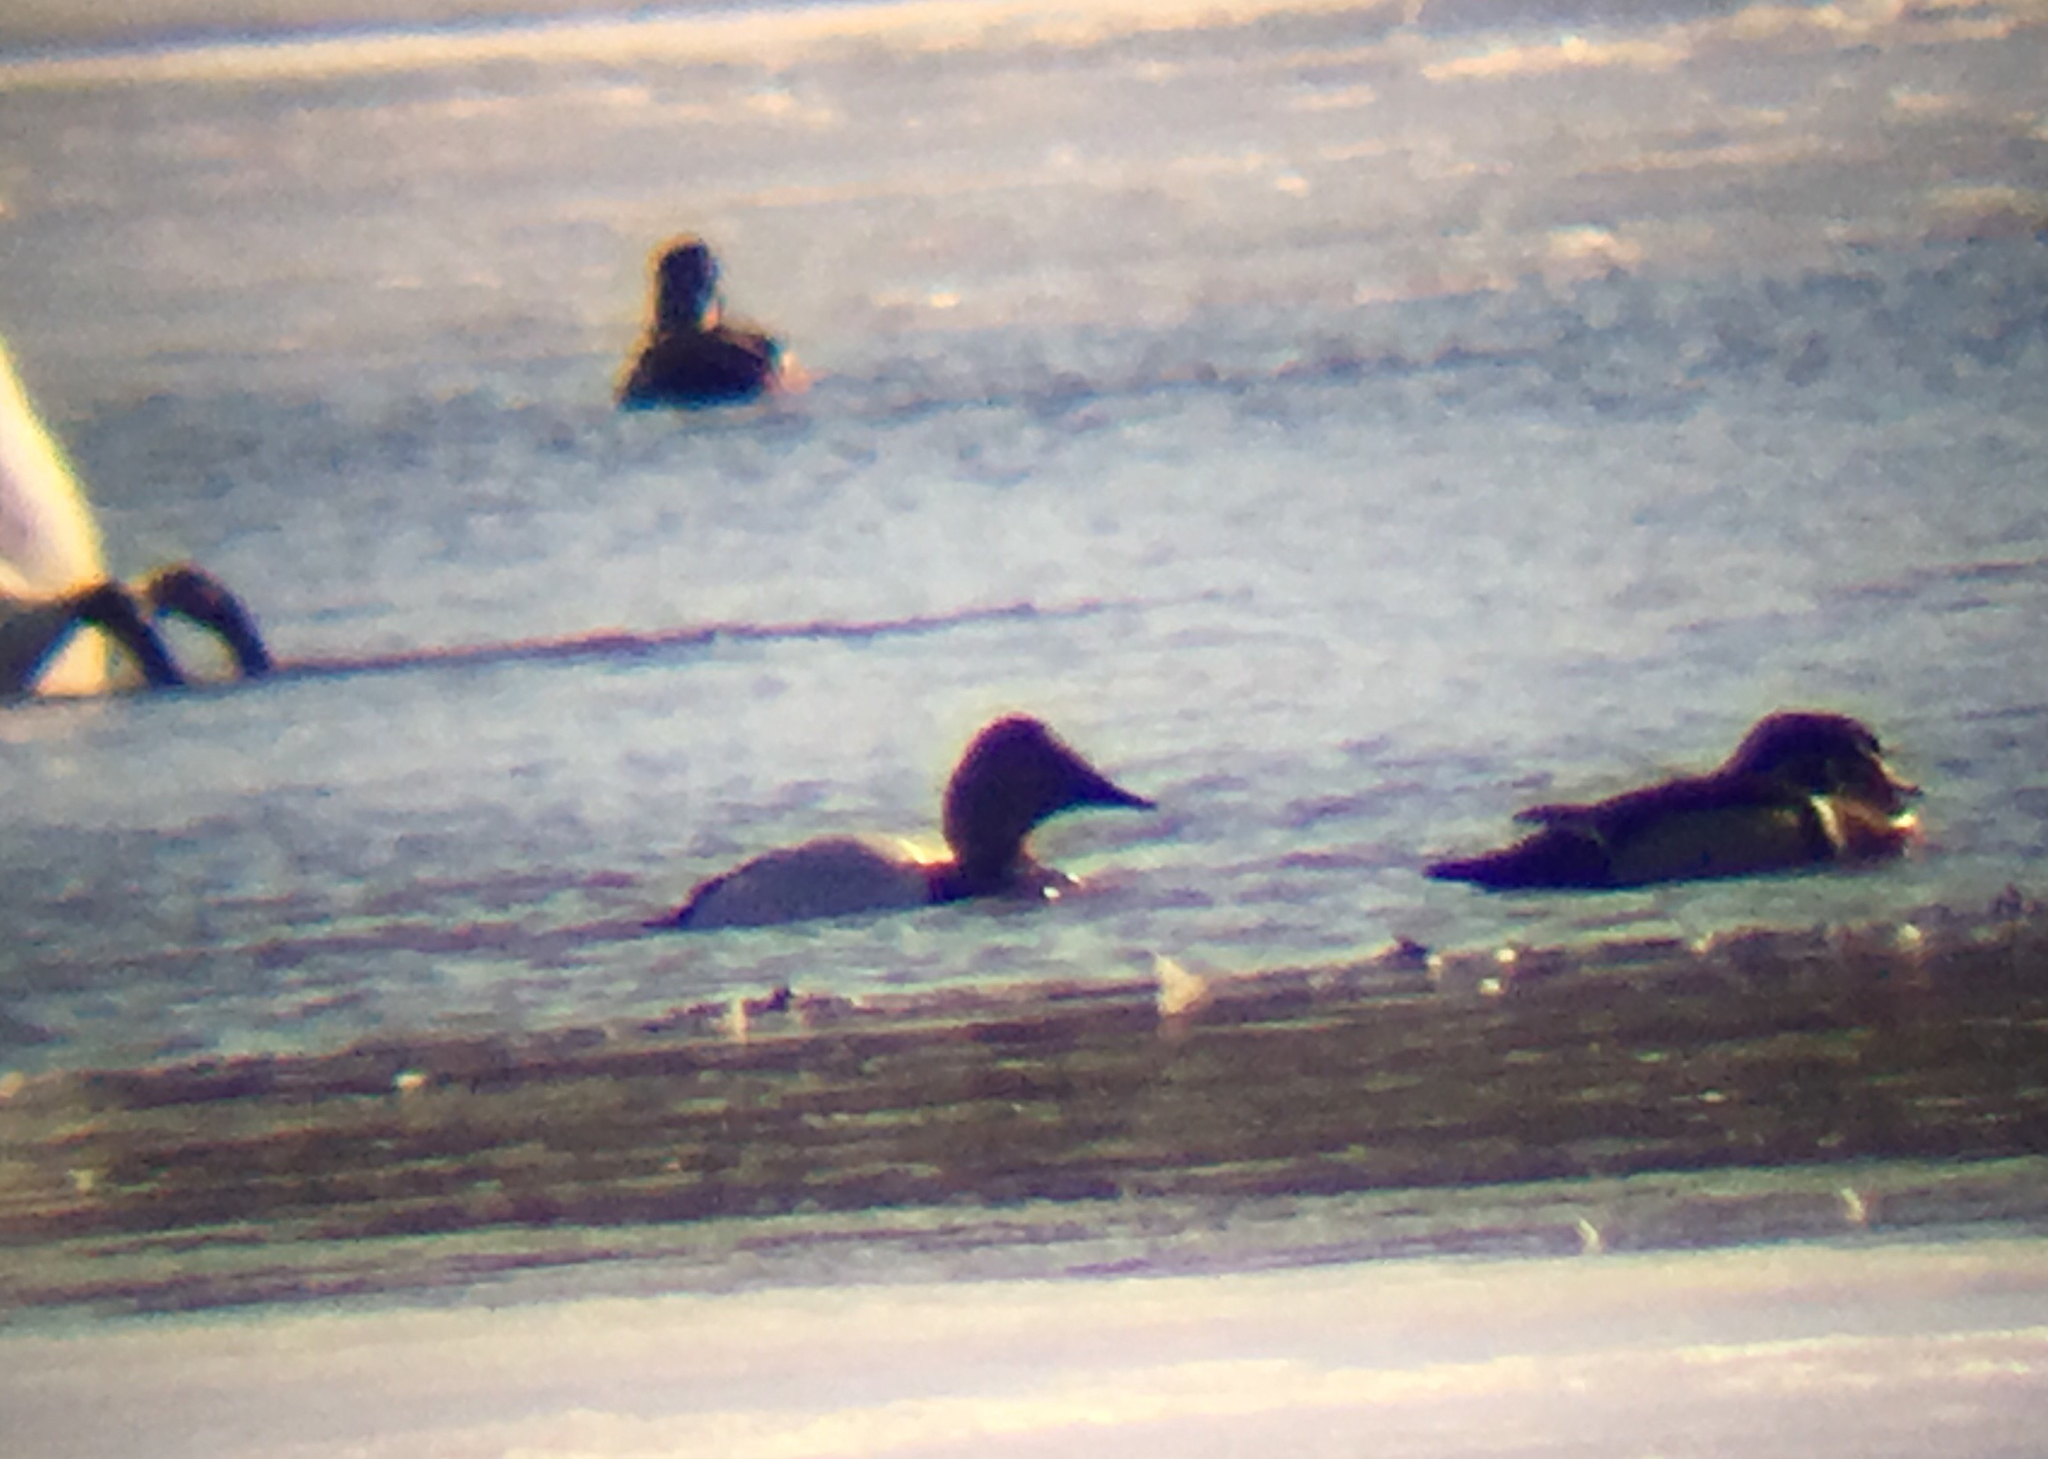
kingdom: Animalia
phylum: Chordata
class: Aves
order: Anseriformes
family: Anatidae
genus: Aythya
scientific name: Aythya valisineria
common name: Canvasback
